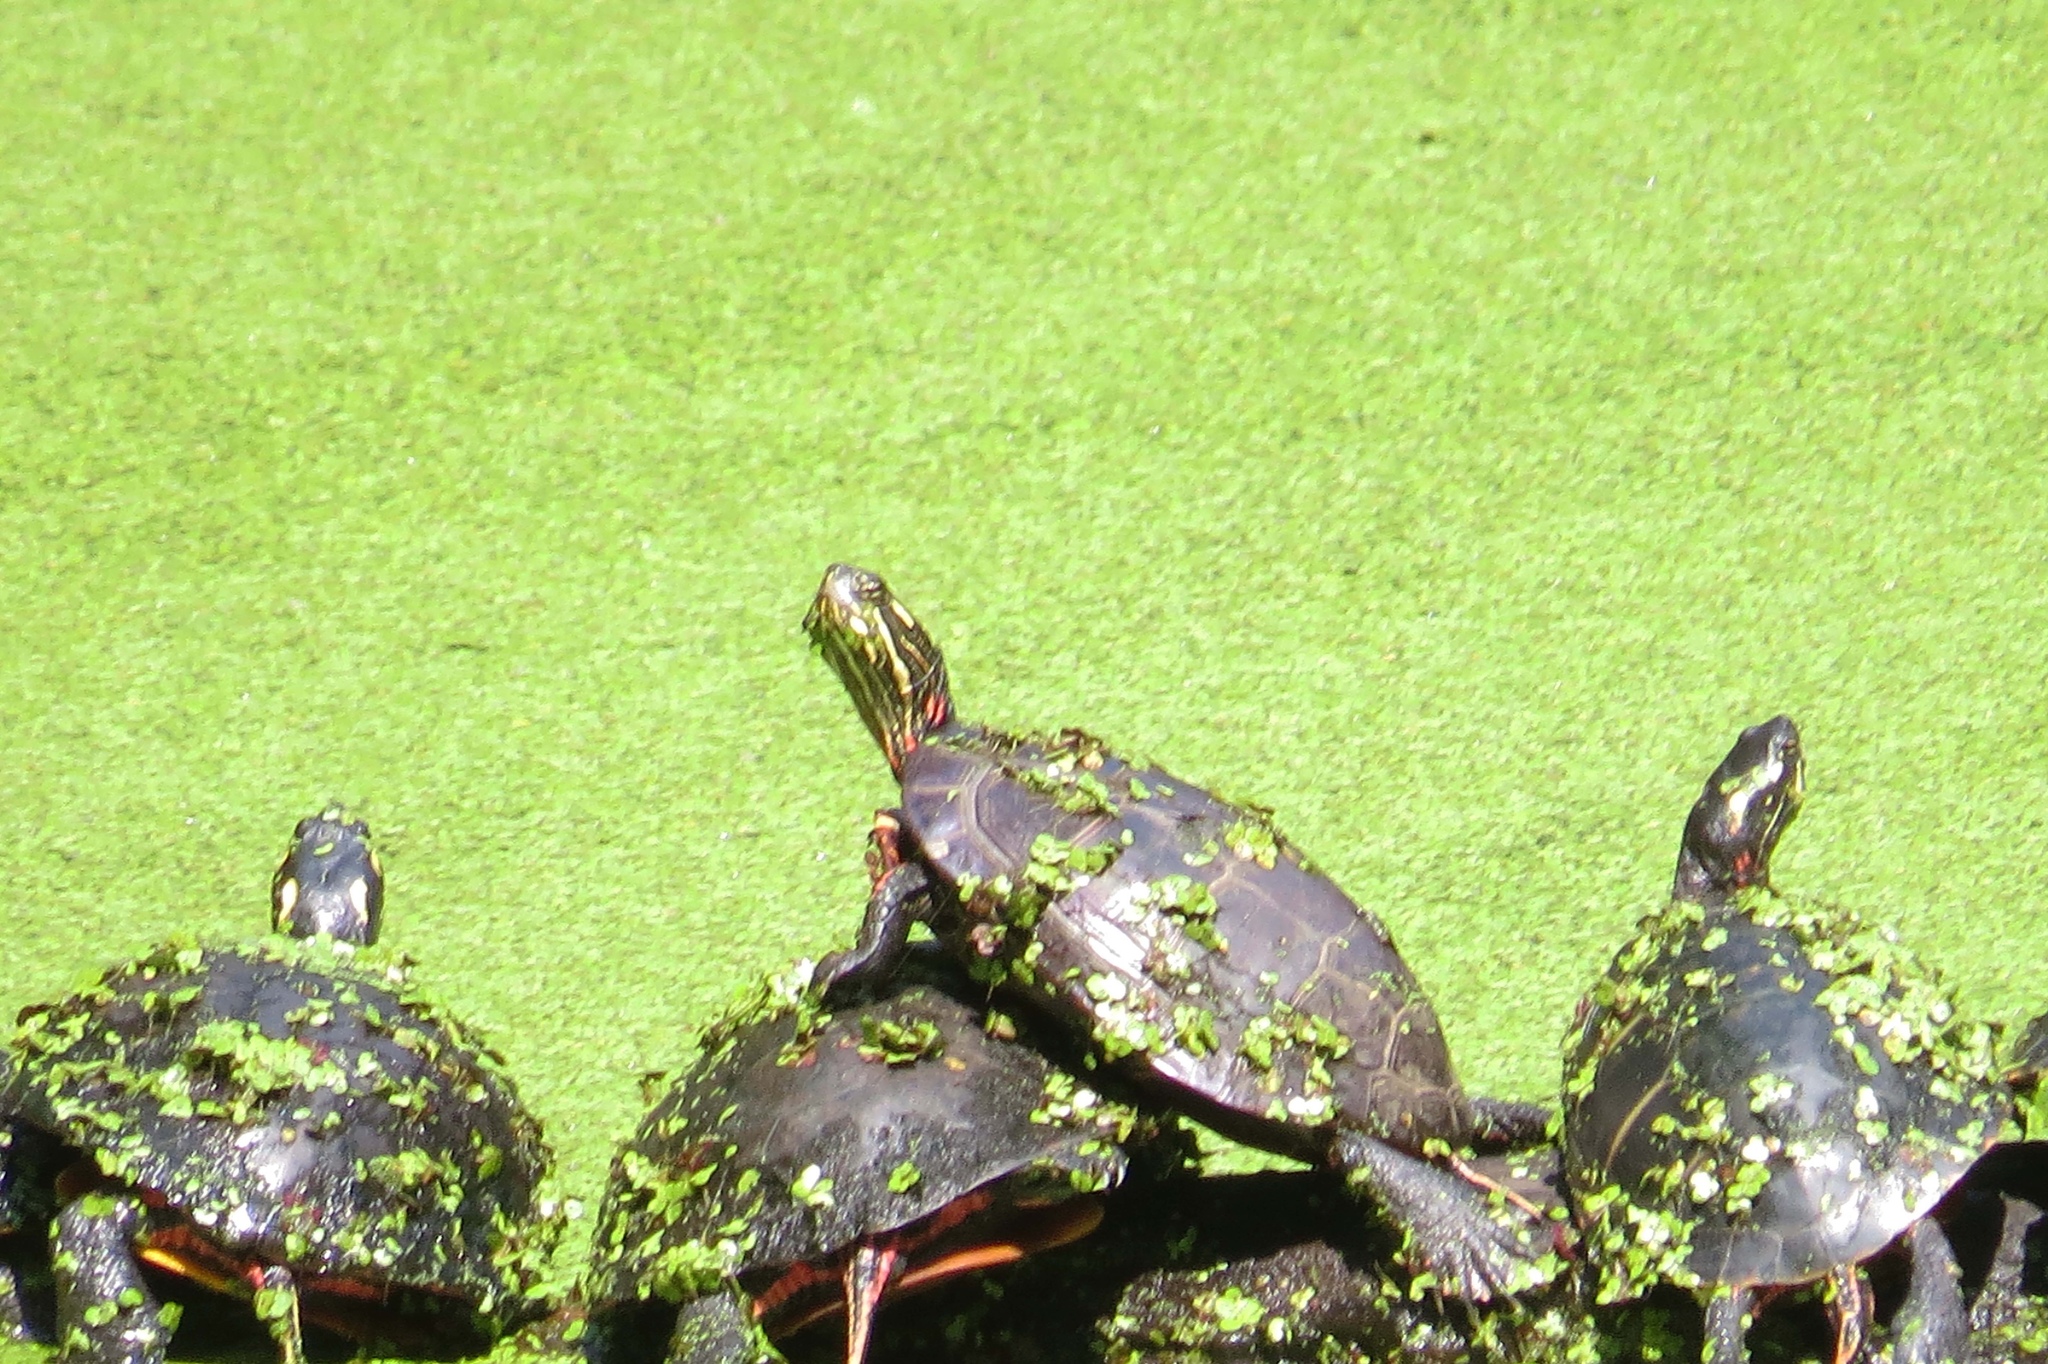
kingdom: Animalia
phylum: Chordata
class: Testudines
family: Emydidae
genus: Chrysemys
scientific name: Chrysemys picta
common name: Painted turtle
